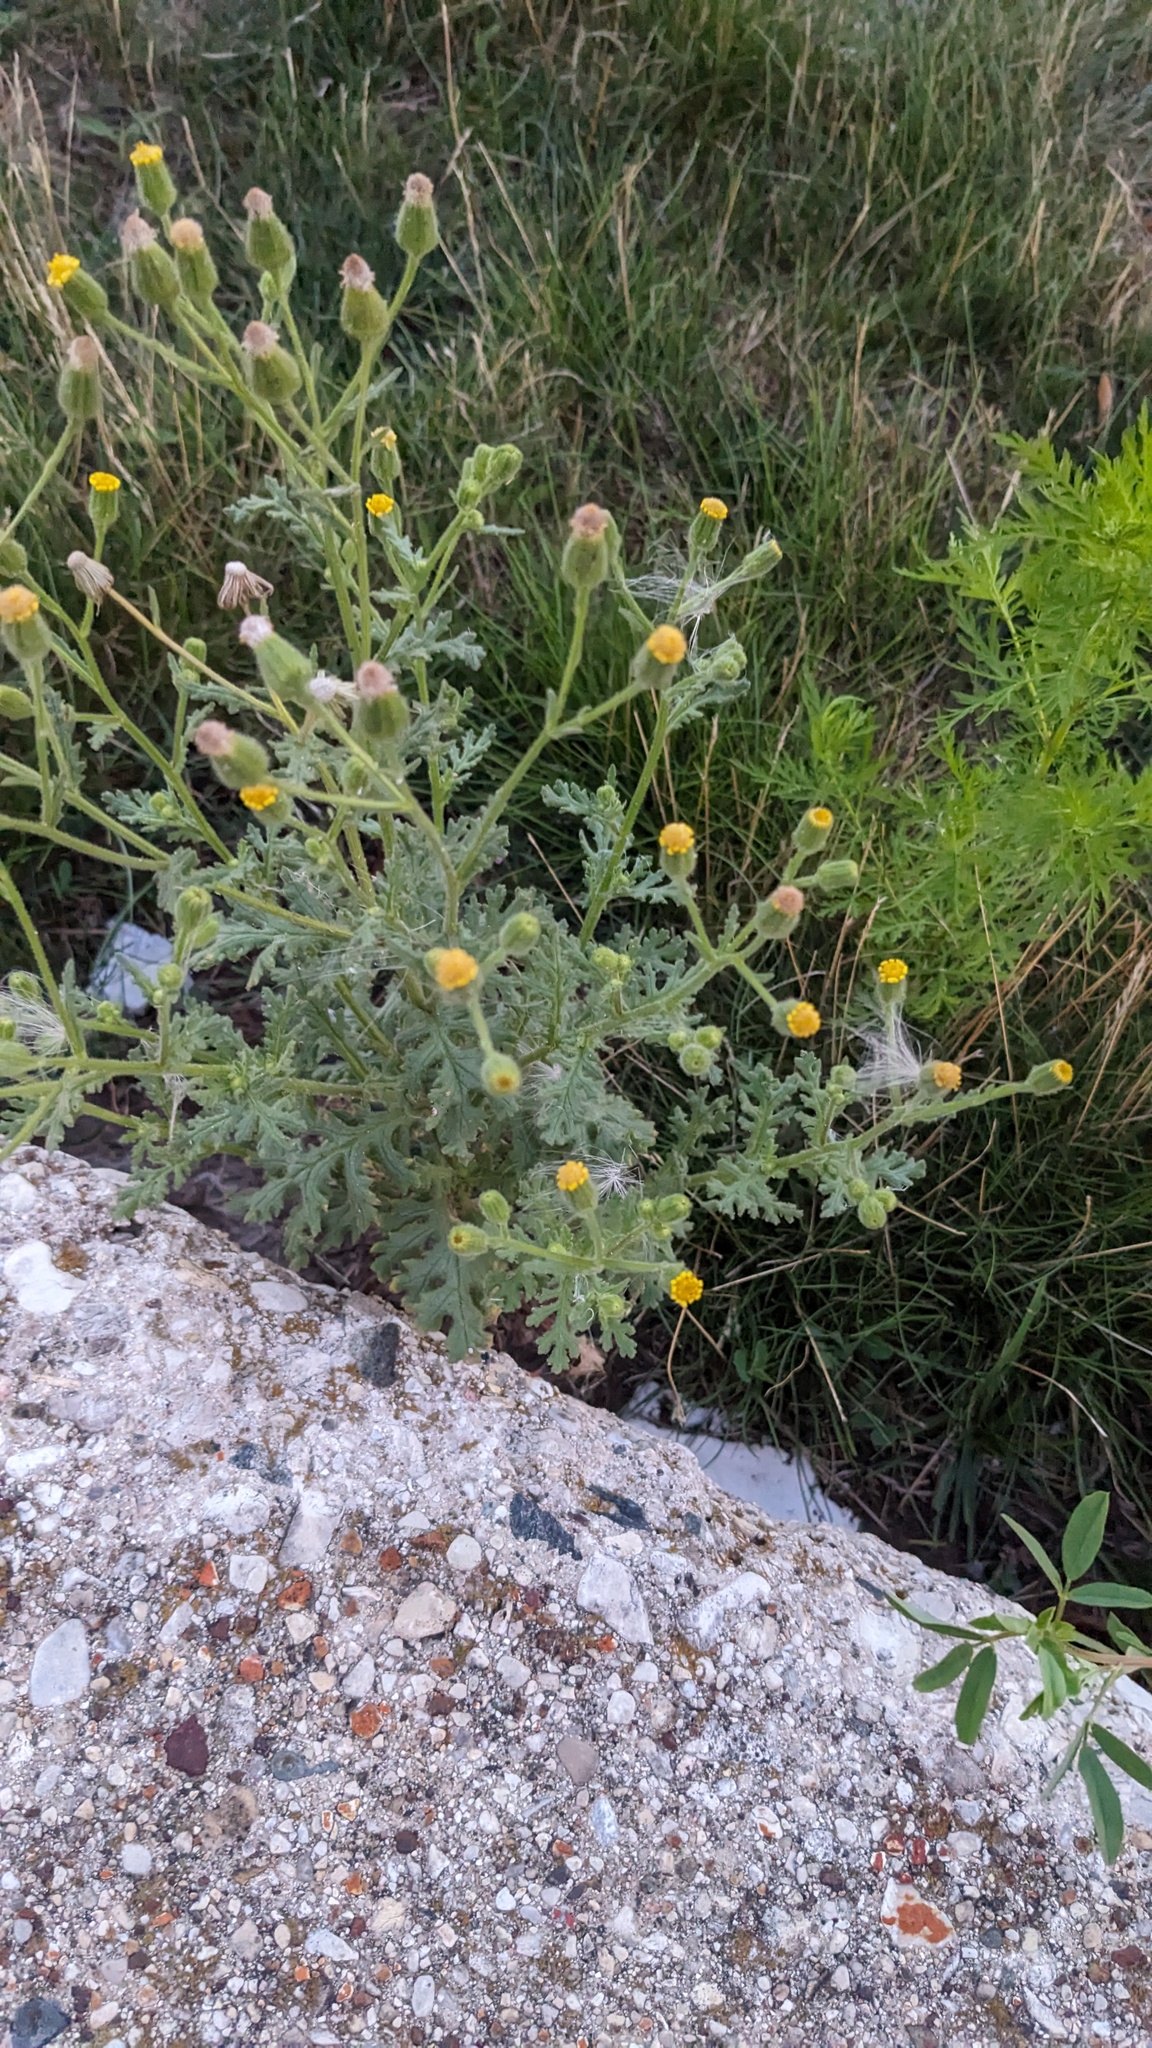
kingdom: Plantae
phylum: Tracheophyta
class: Magnoliopsida
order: Asterales
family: Asteraceae
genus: Senecio
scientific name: Senecio viscosus
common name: Sticky groundsel
